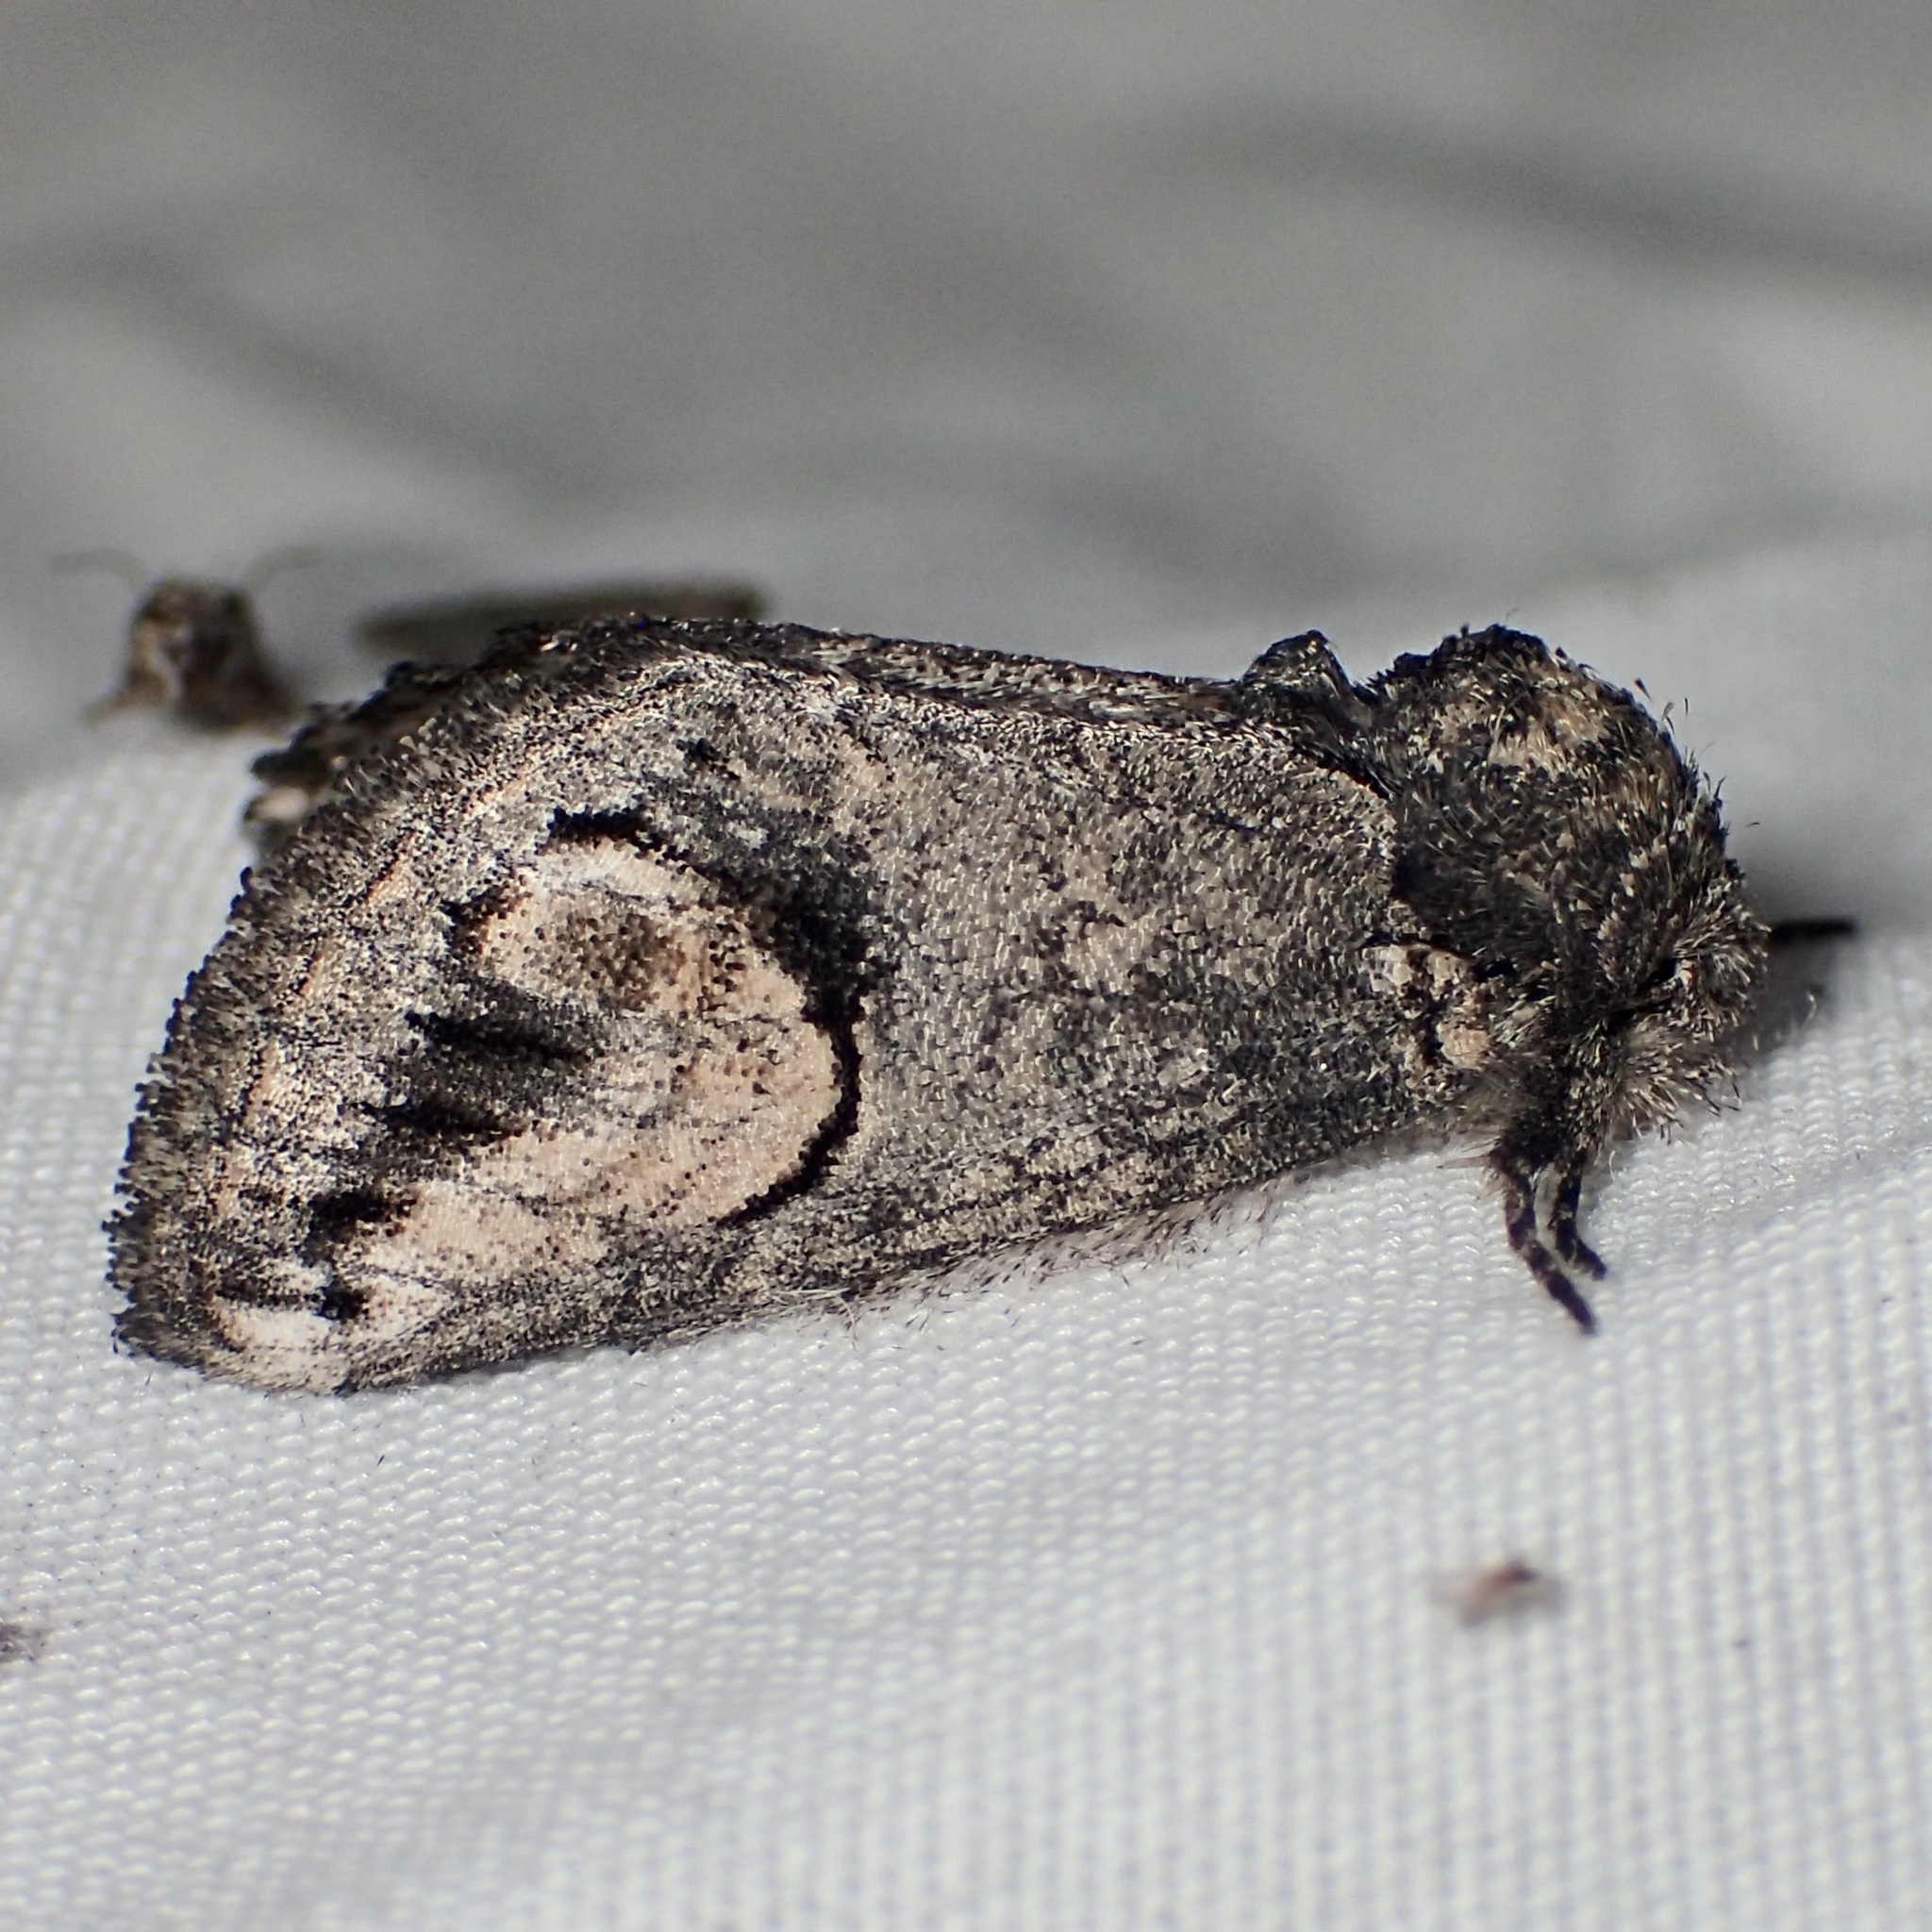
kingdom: Animalia
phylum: Arthropoda
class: Insecta
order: Lepidoptera
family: Notodontidae
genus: Rifargia
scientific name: Rifargia
